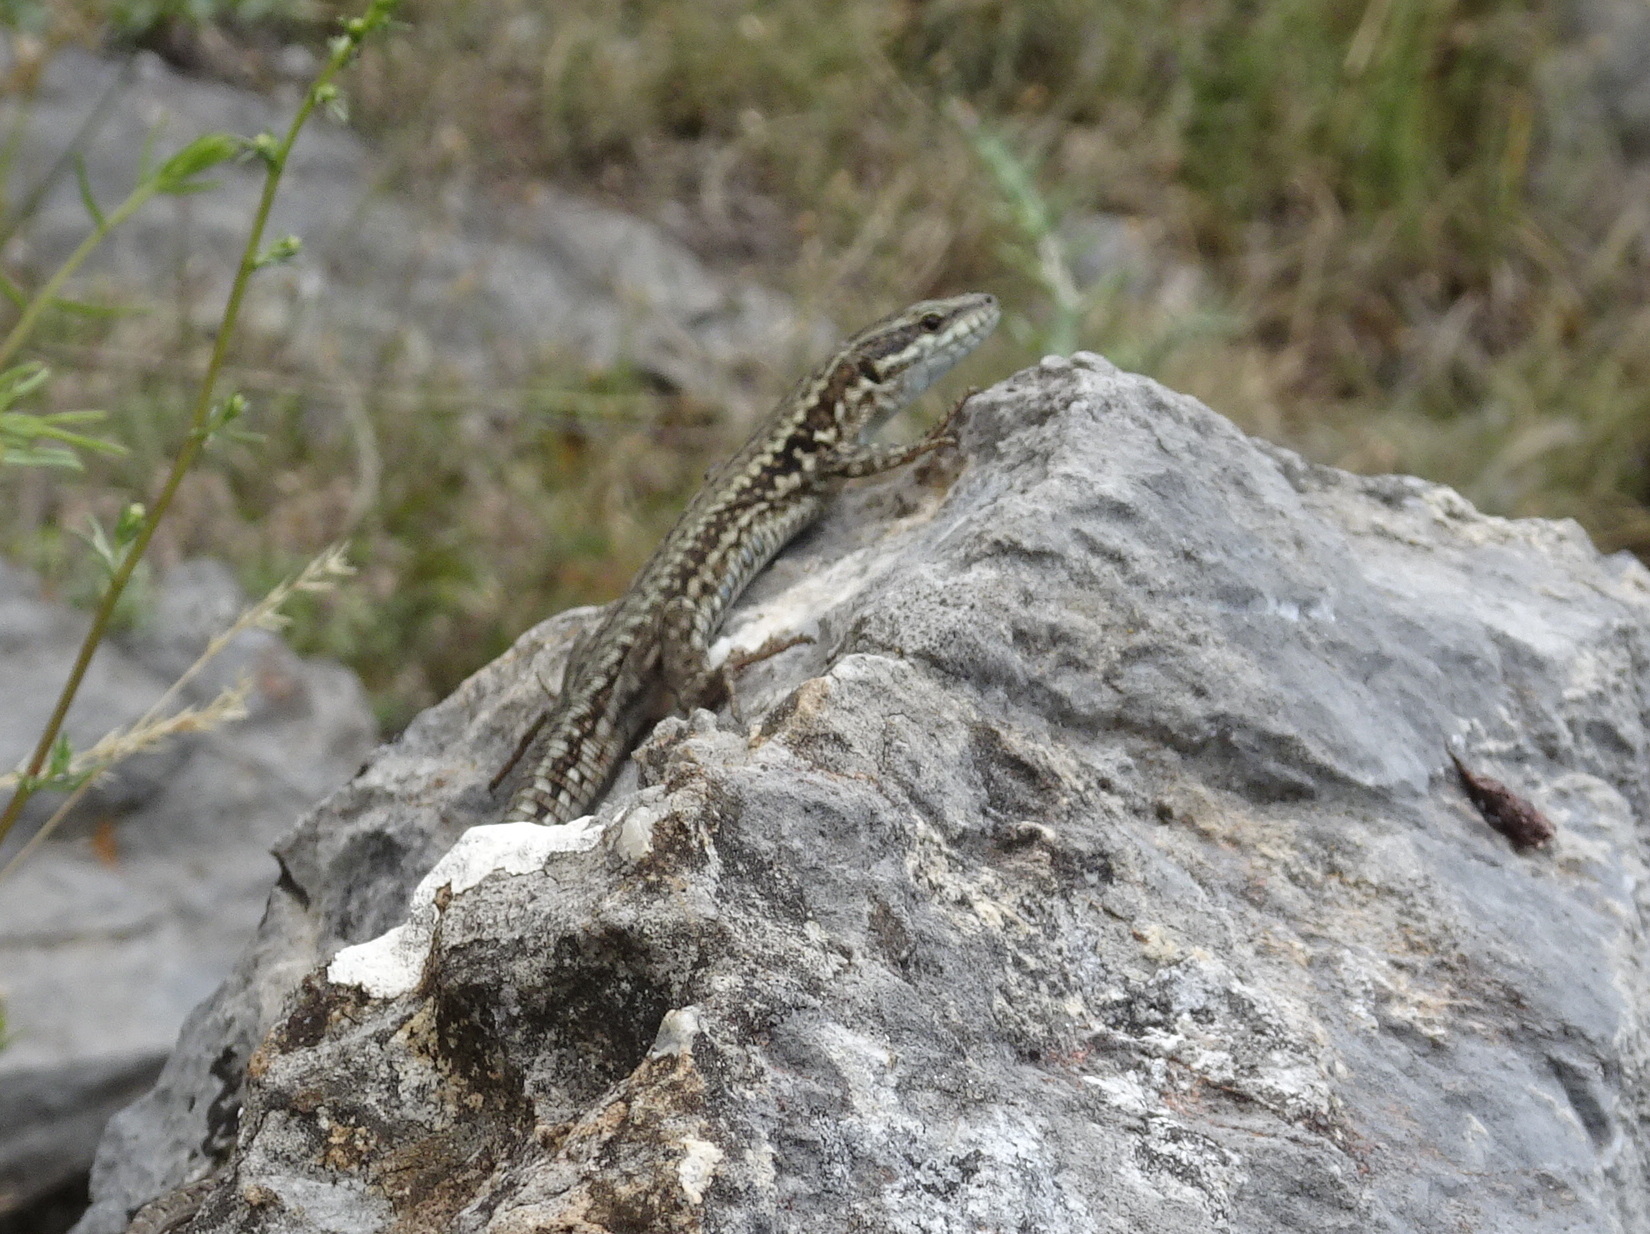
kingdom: Animalia
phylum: Chordata
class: Squamata
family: Lacertidae
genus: Podarcis
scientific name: Podarcis muralis
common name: Common wall lizard
